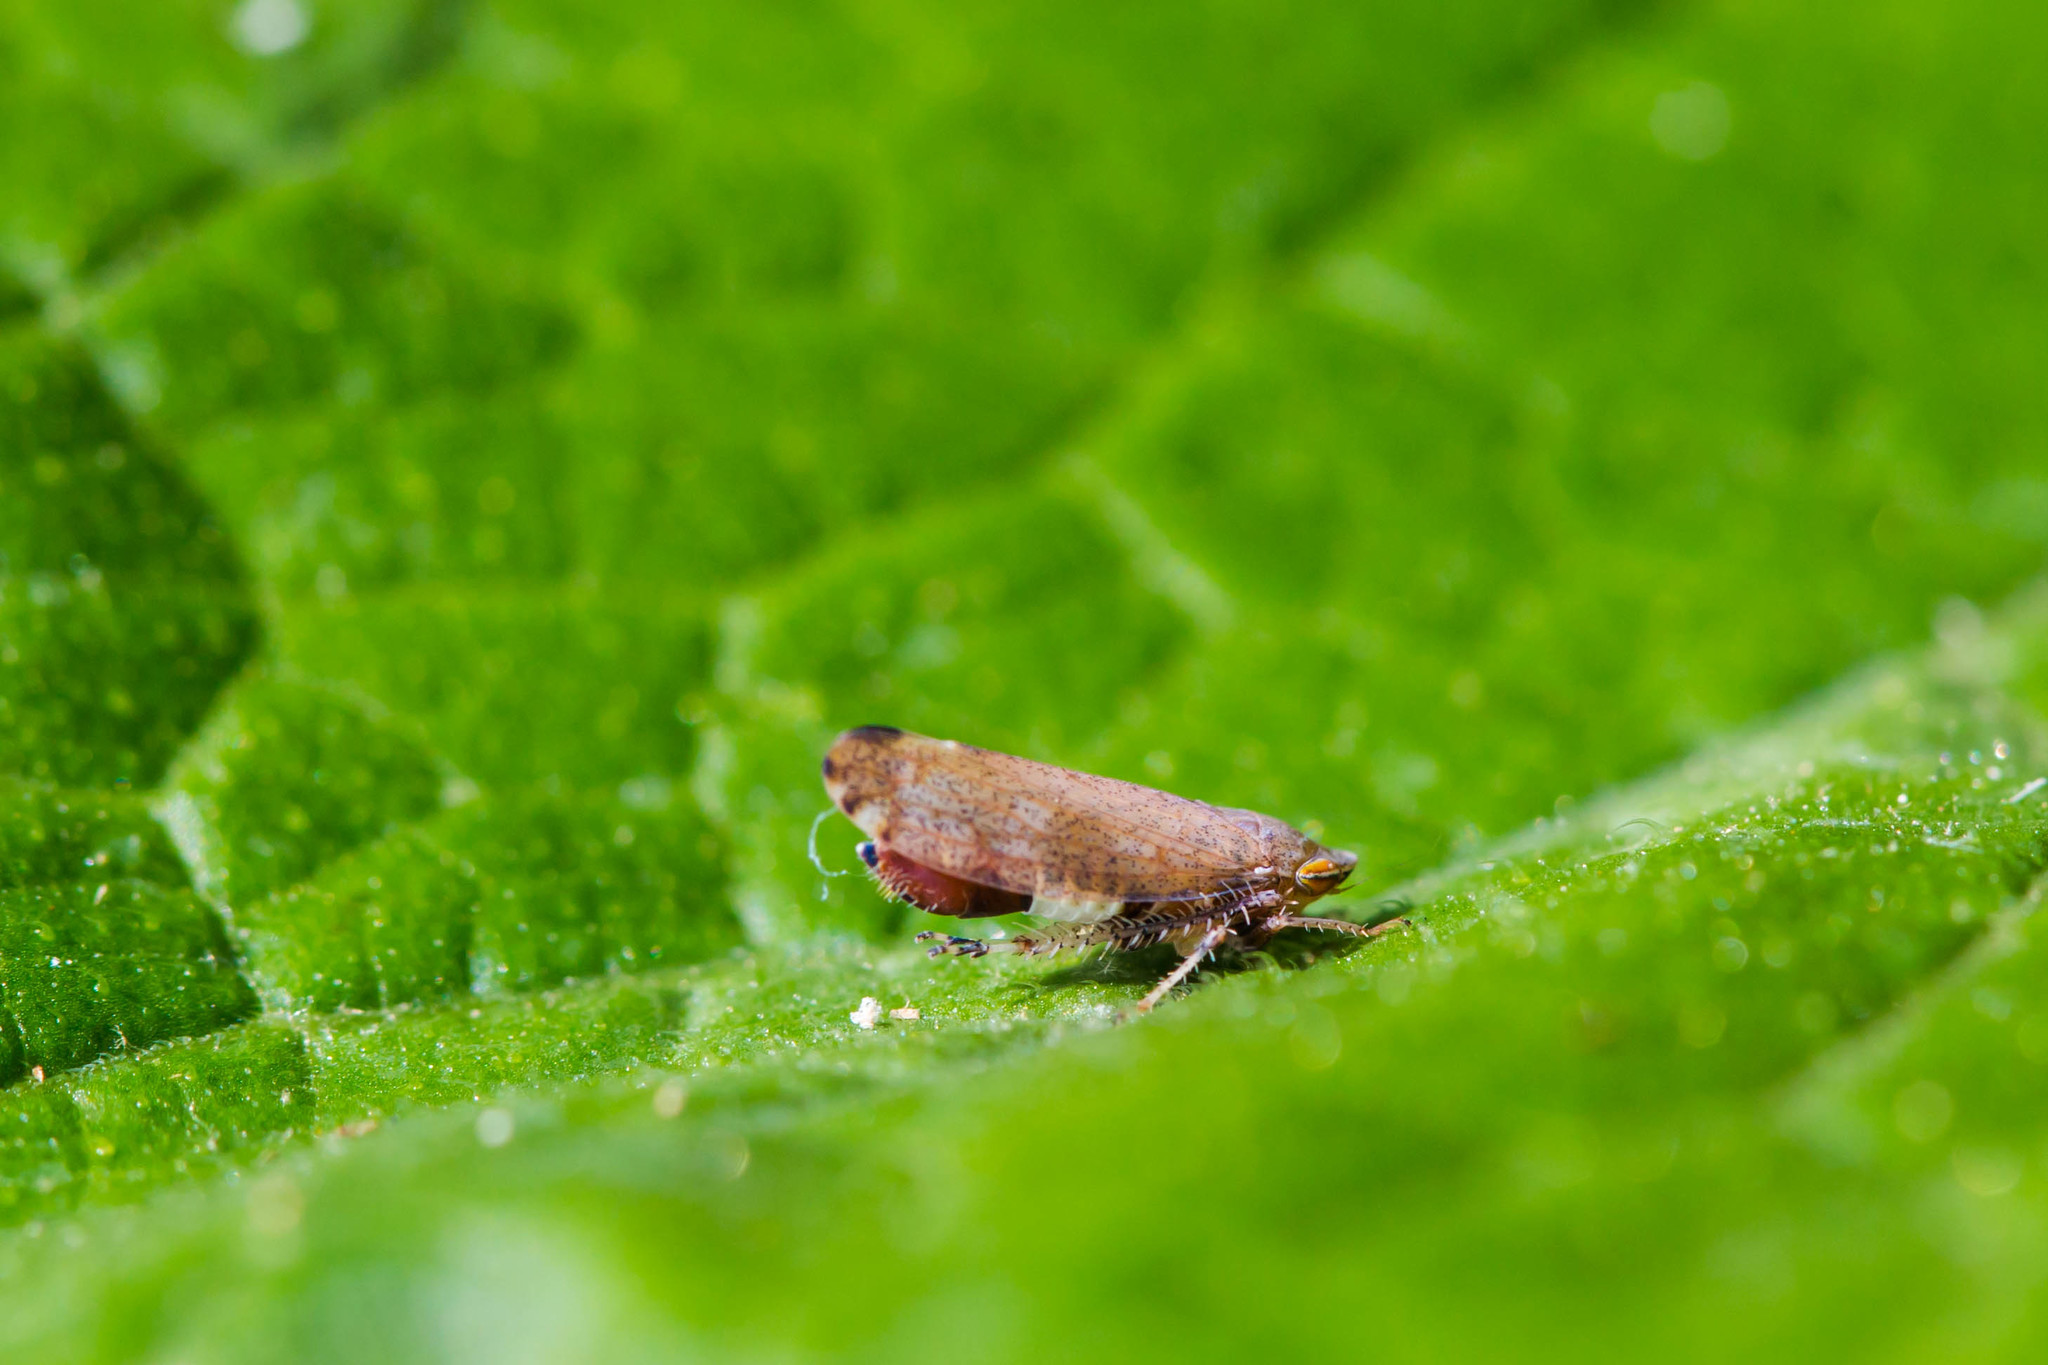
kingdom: Animalia
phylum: Arthropoda
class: Insecta
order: Hemiptera
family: Cicadellidae
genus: Fieberiella
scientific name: Fieberiella florii
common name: Flor’s leafhopper
